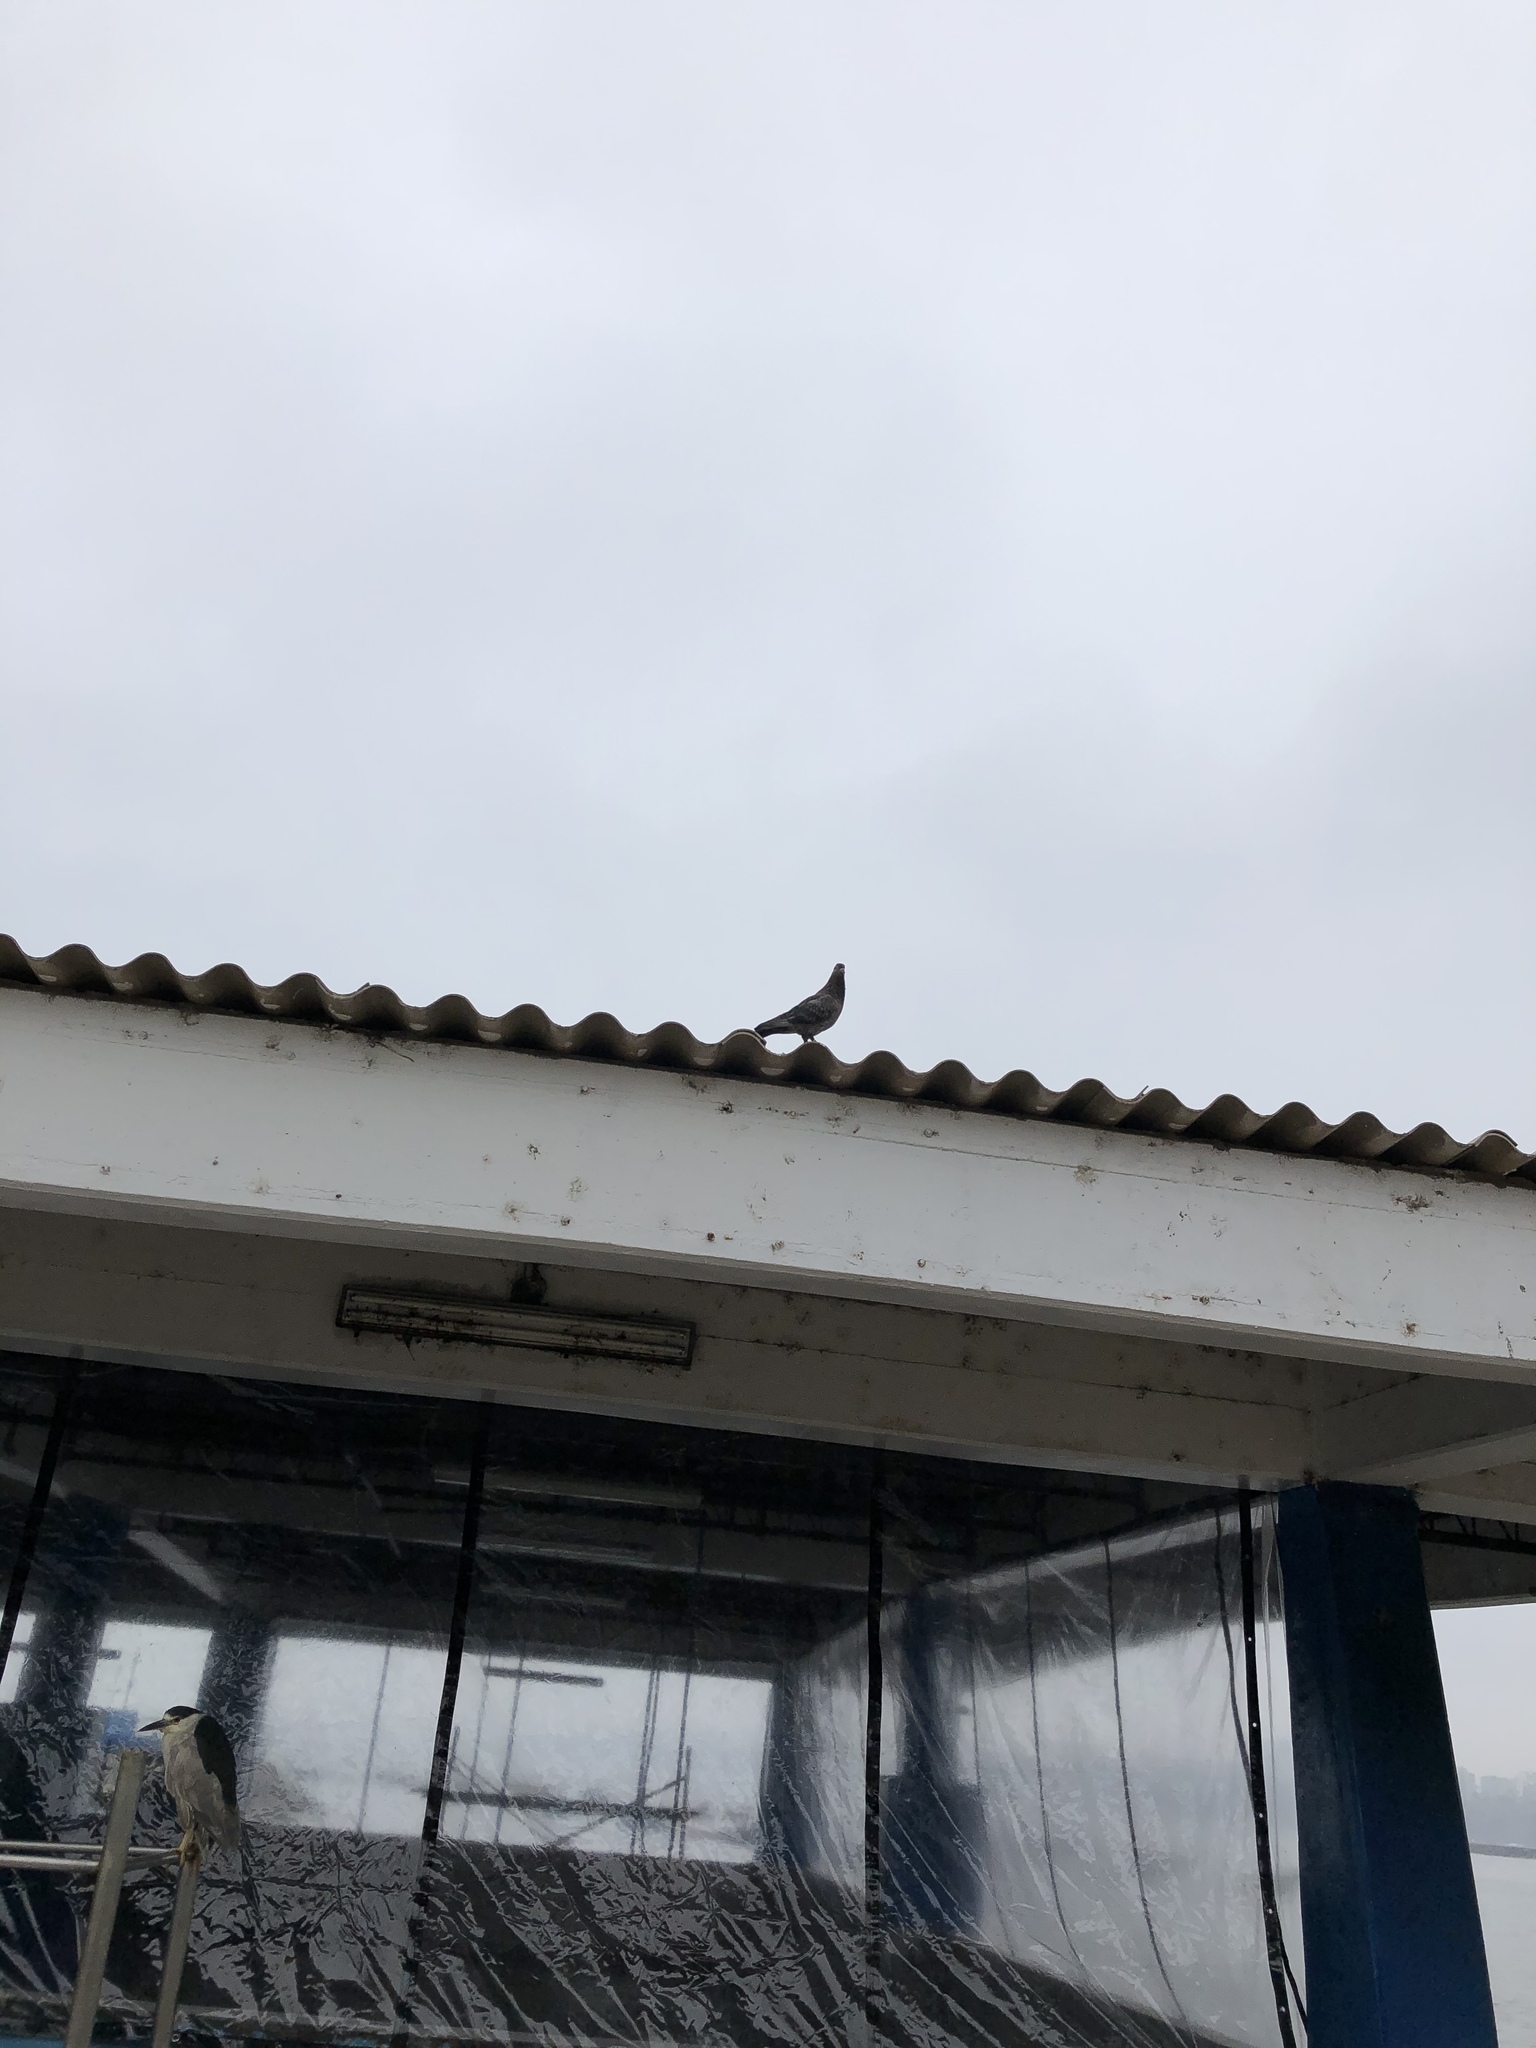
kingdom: Animalia
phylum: Chordata
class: Aves
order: Columbiformes
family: Columbidae
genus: Columba
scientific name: Columba livia
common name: Rock pigeon
